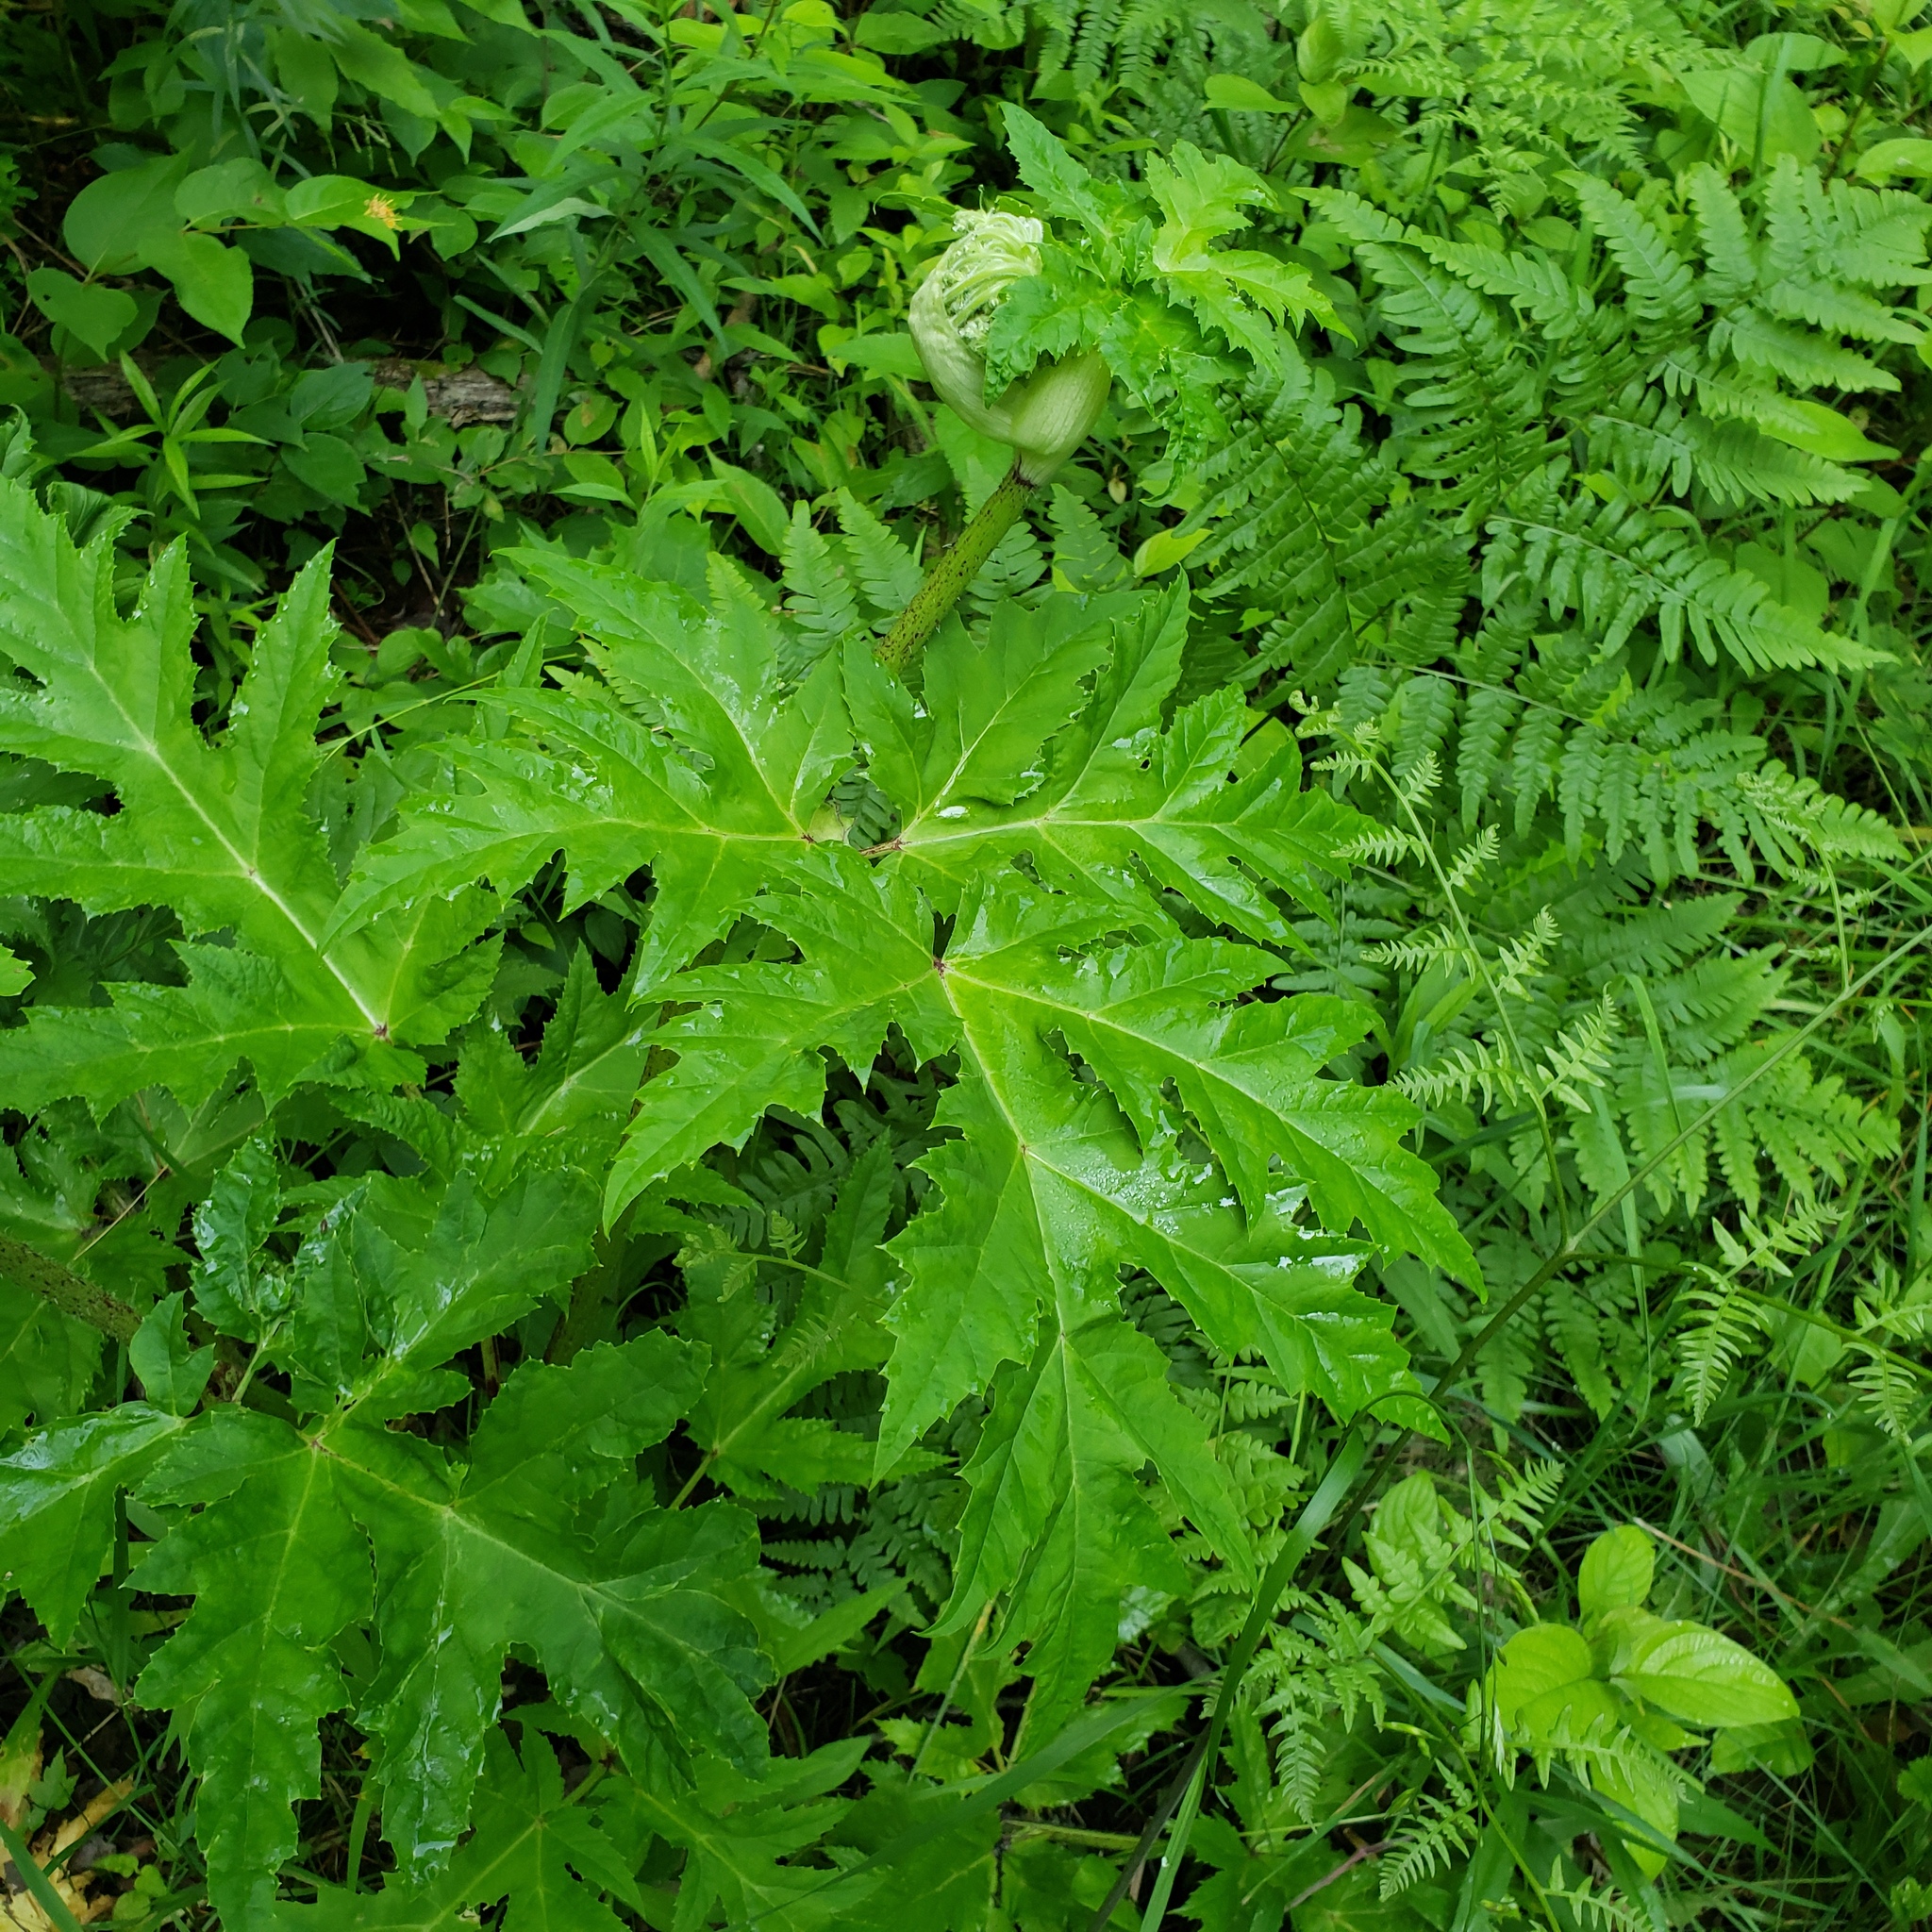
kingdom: Plantae
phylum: Tracheophyta
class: Magnoliopsida
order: Apiales
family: Apiaceae
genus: Heracleum
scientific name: Heracleum mantegazzianum
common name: Giant hogweed
